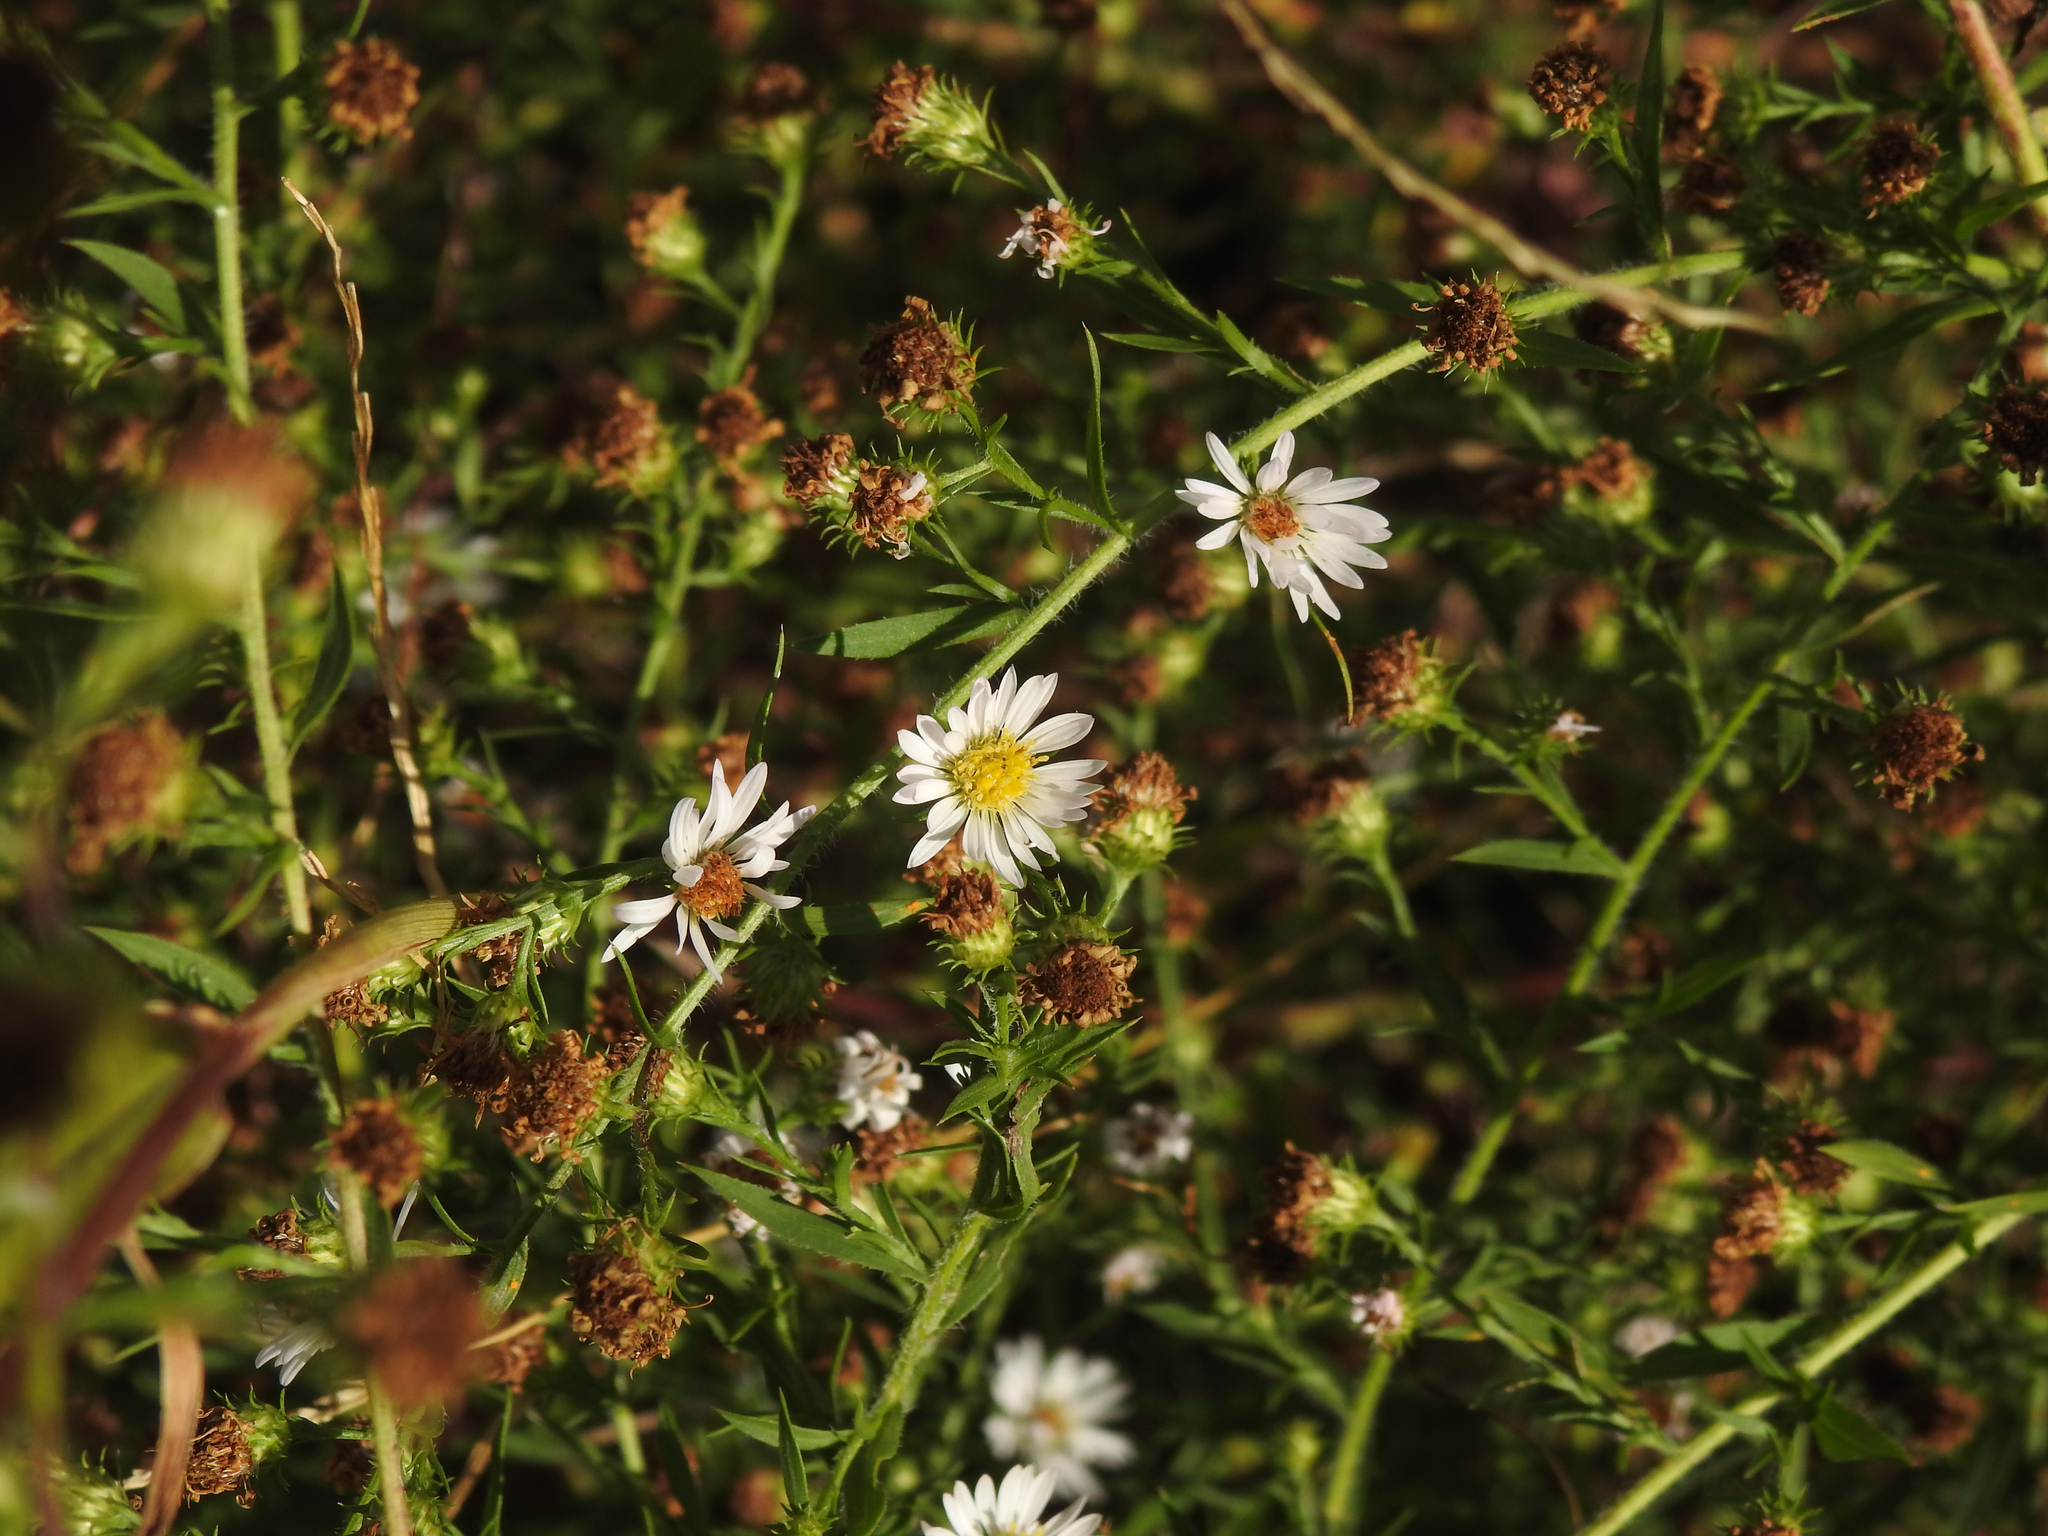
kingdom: Plantae
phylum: Tracheophyta
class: Magnoliopsida
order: Asterales
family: Asteraceae
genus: Symphyotrichum
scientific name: Symphyotrichum pilosum
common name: Awl aster
